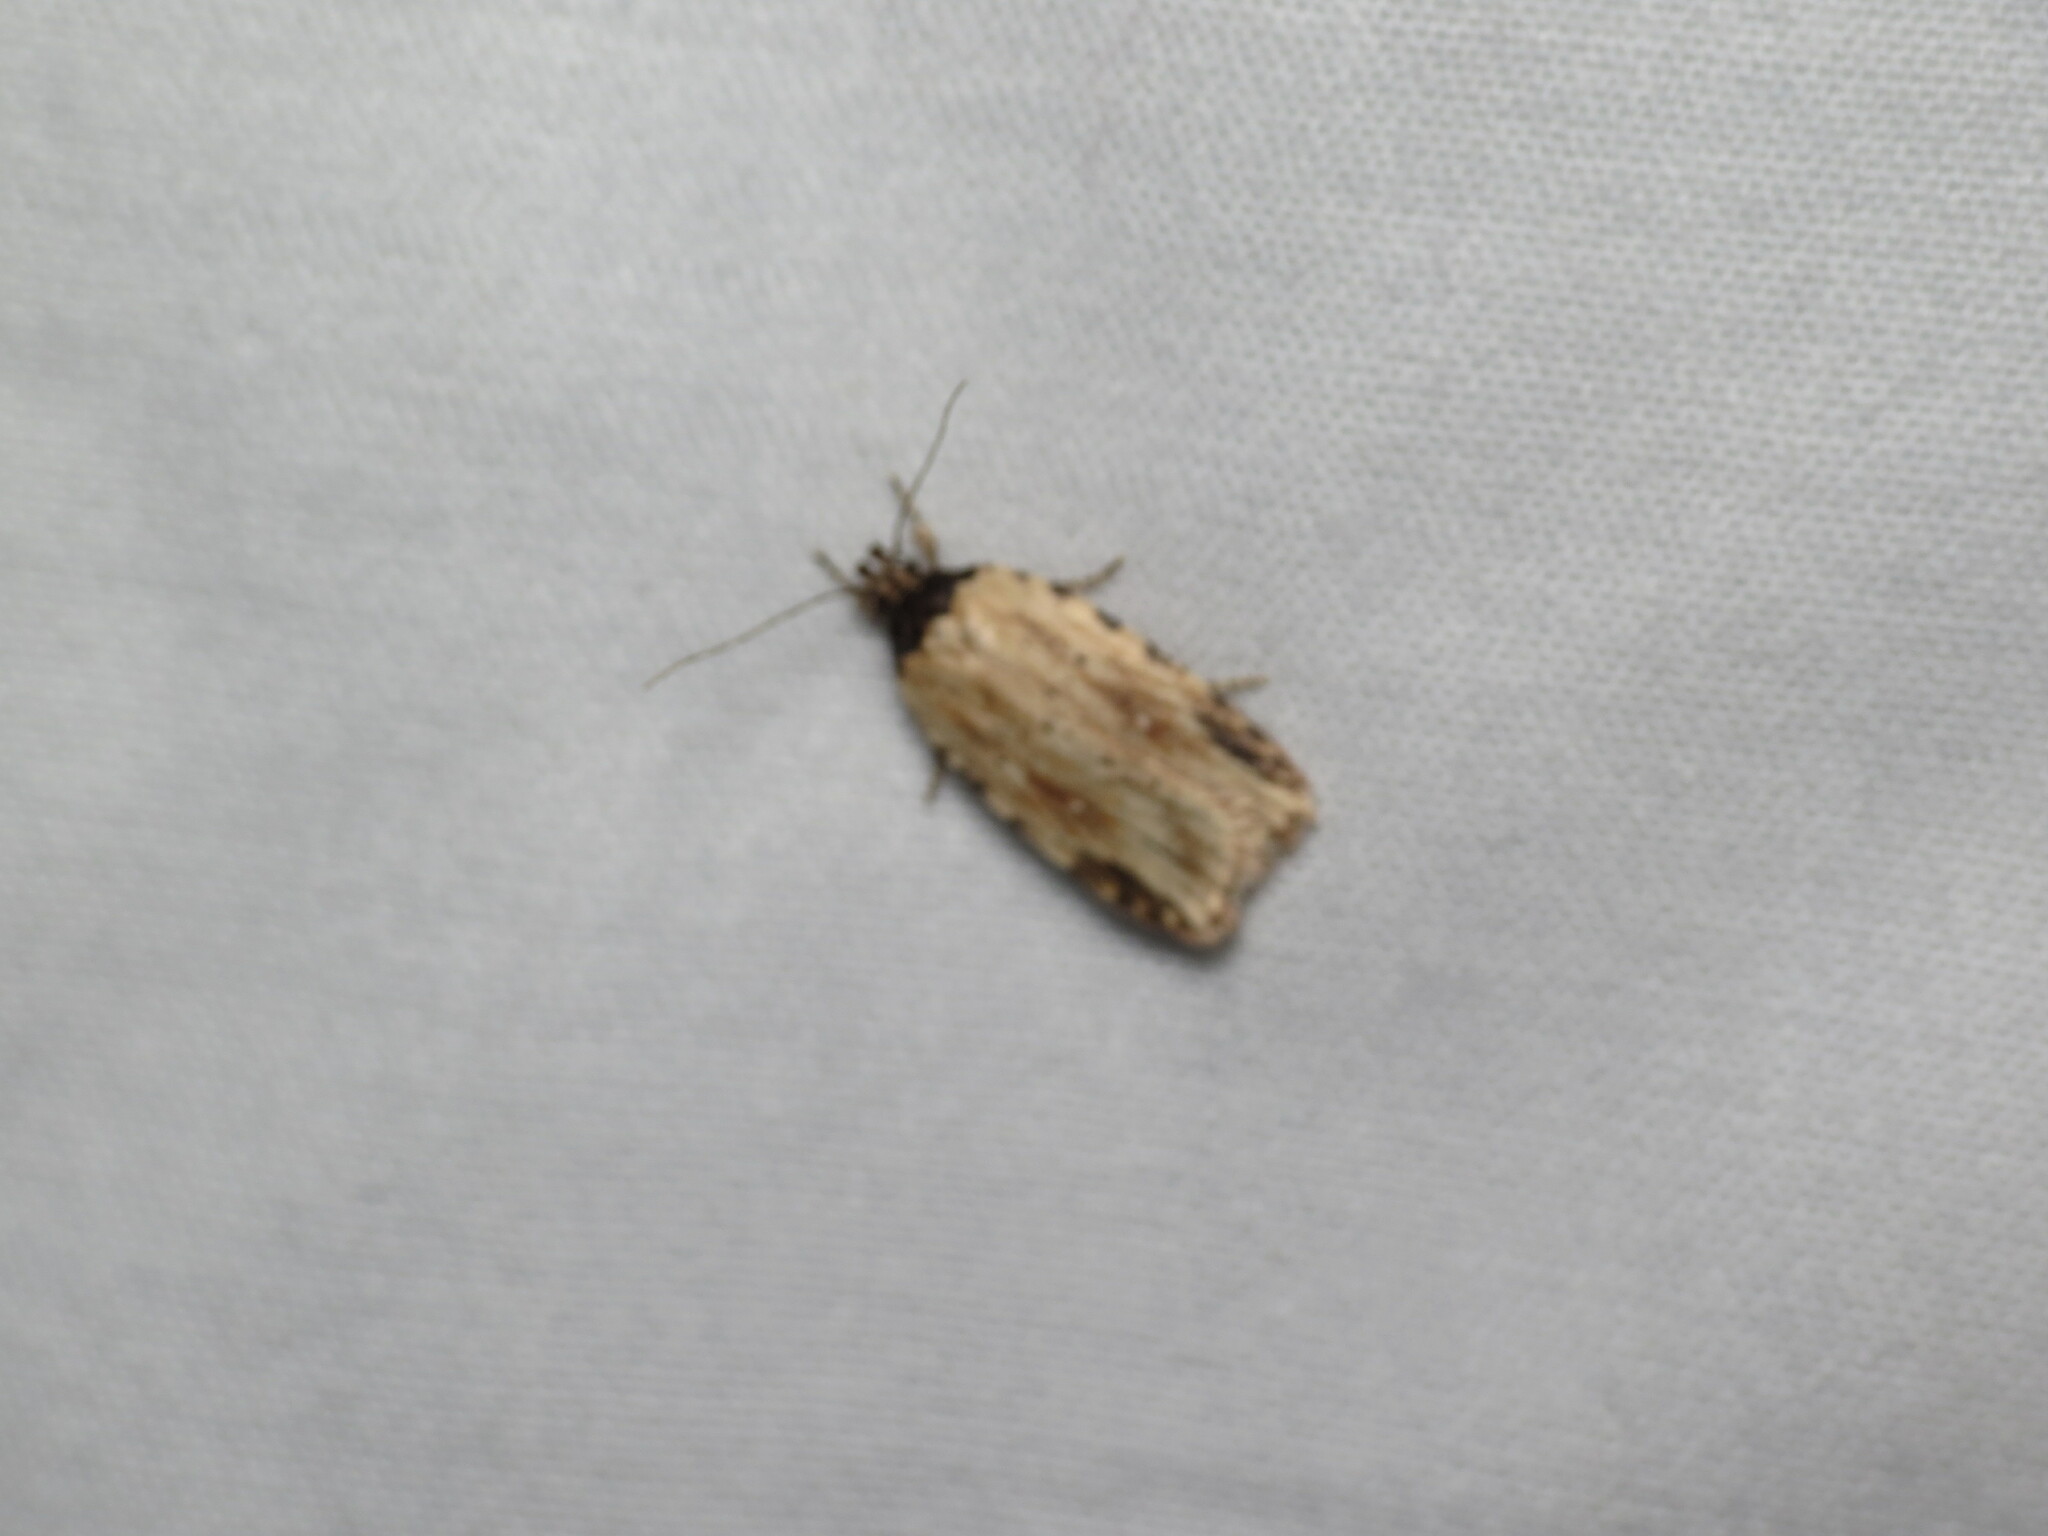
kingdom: Animalia
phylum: Arthropoda
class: Insecta
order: Lepidoptera
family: Depressariidae
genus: Agonopterix
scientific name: Agonopterix atrodorsella
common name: Beggartick leaffolder
